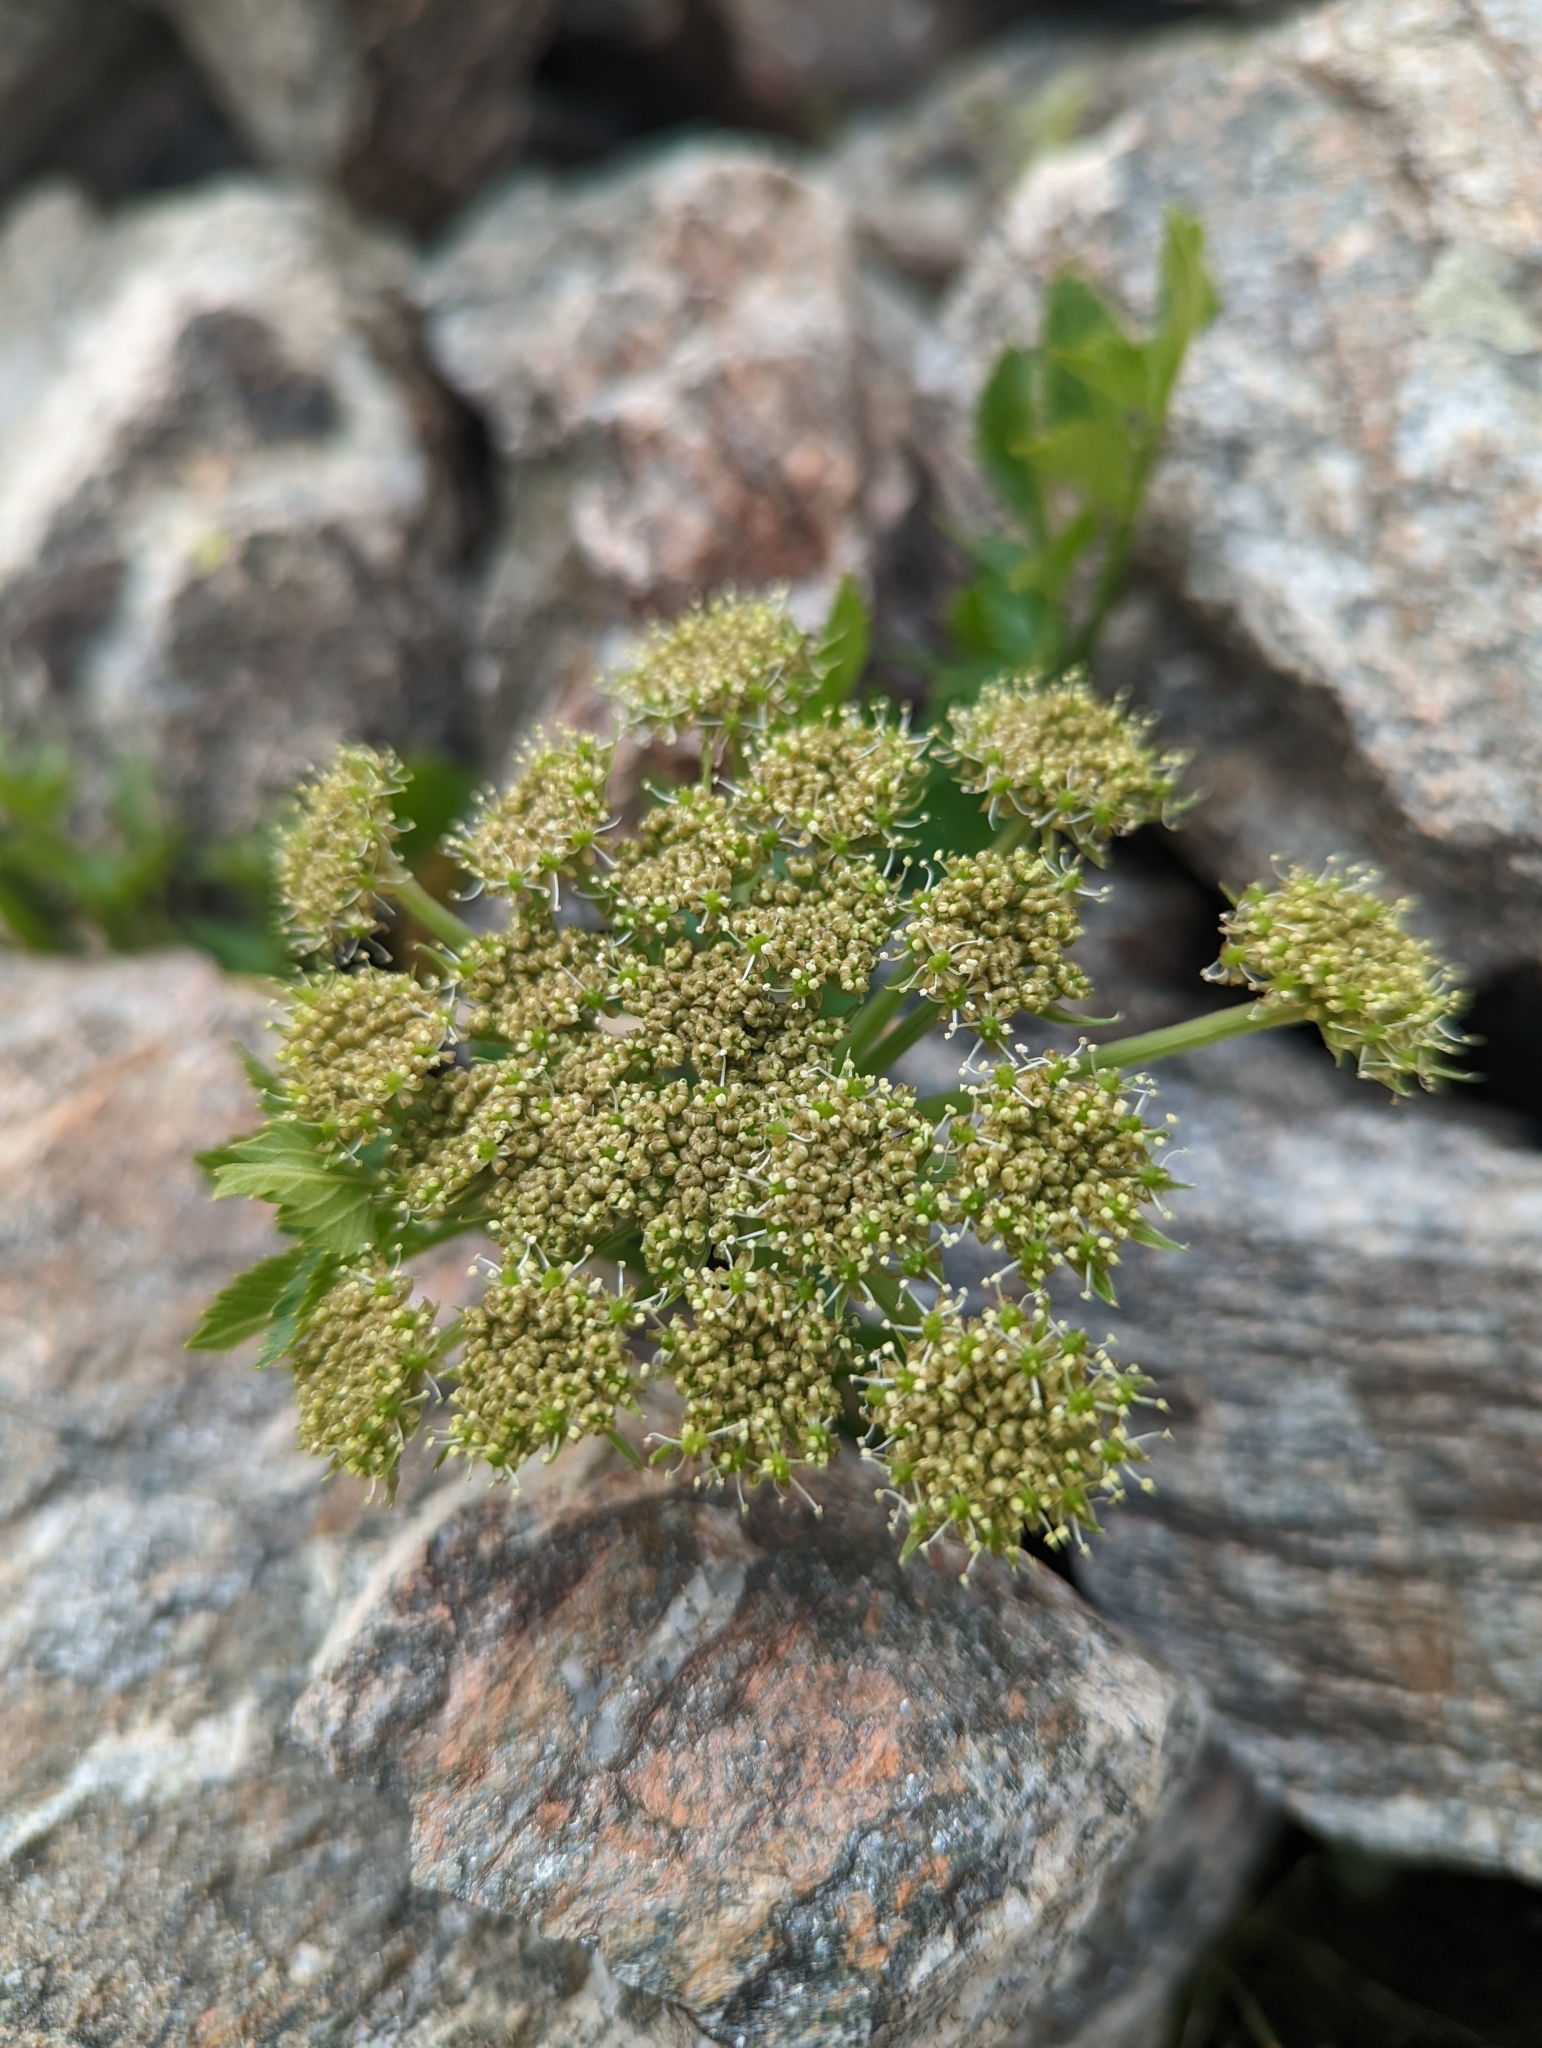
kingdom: Plantae
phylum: Tracheophyta
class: Magnoliopsida
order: Apiales
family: Apiaceae
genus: Angelica
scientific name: Angelica grayi
